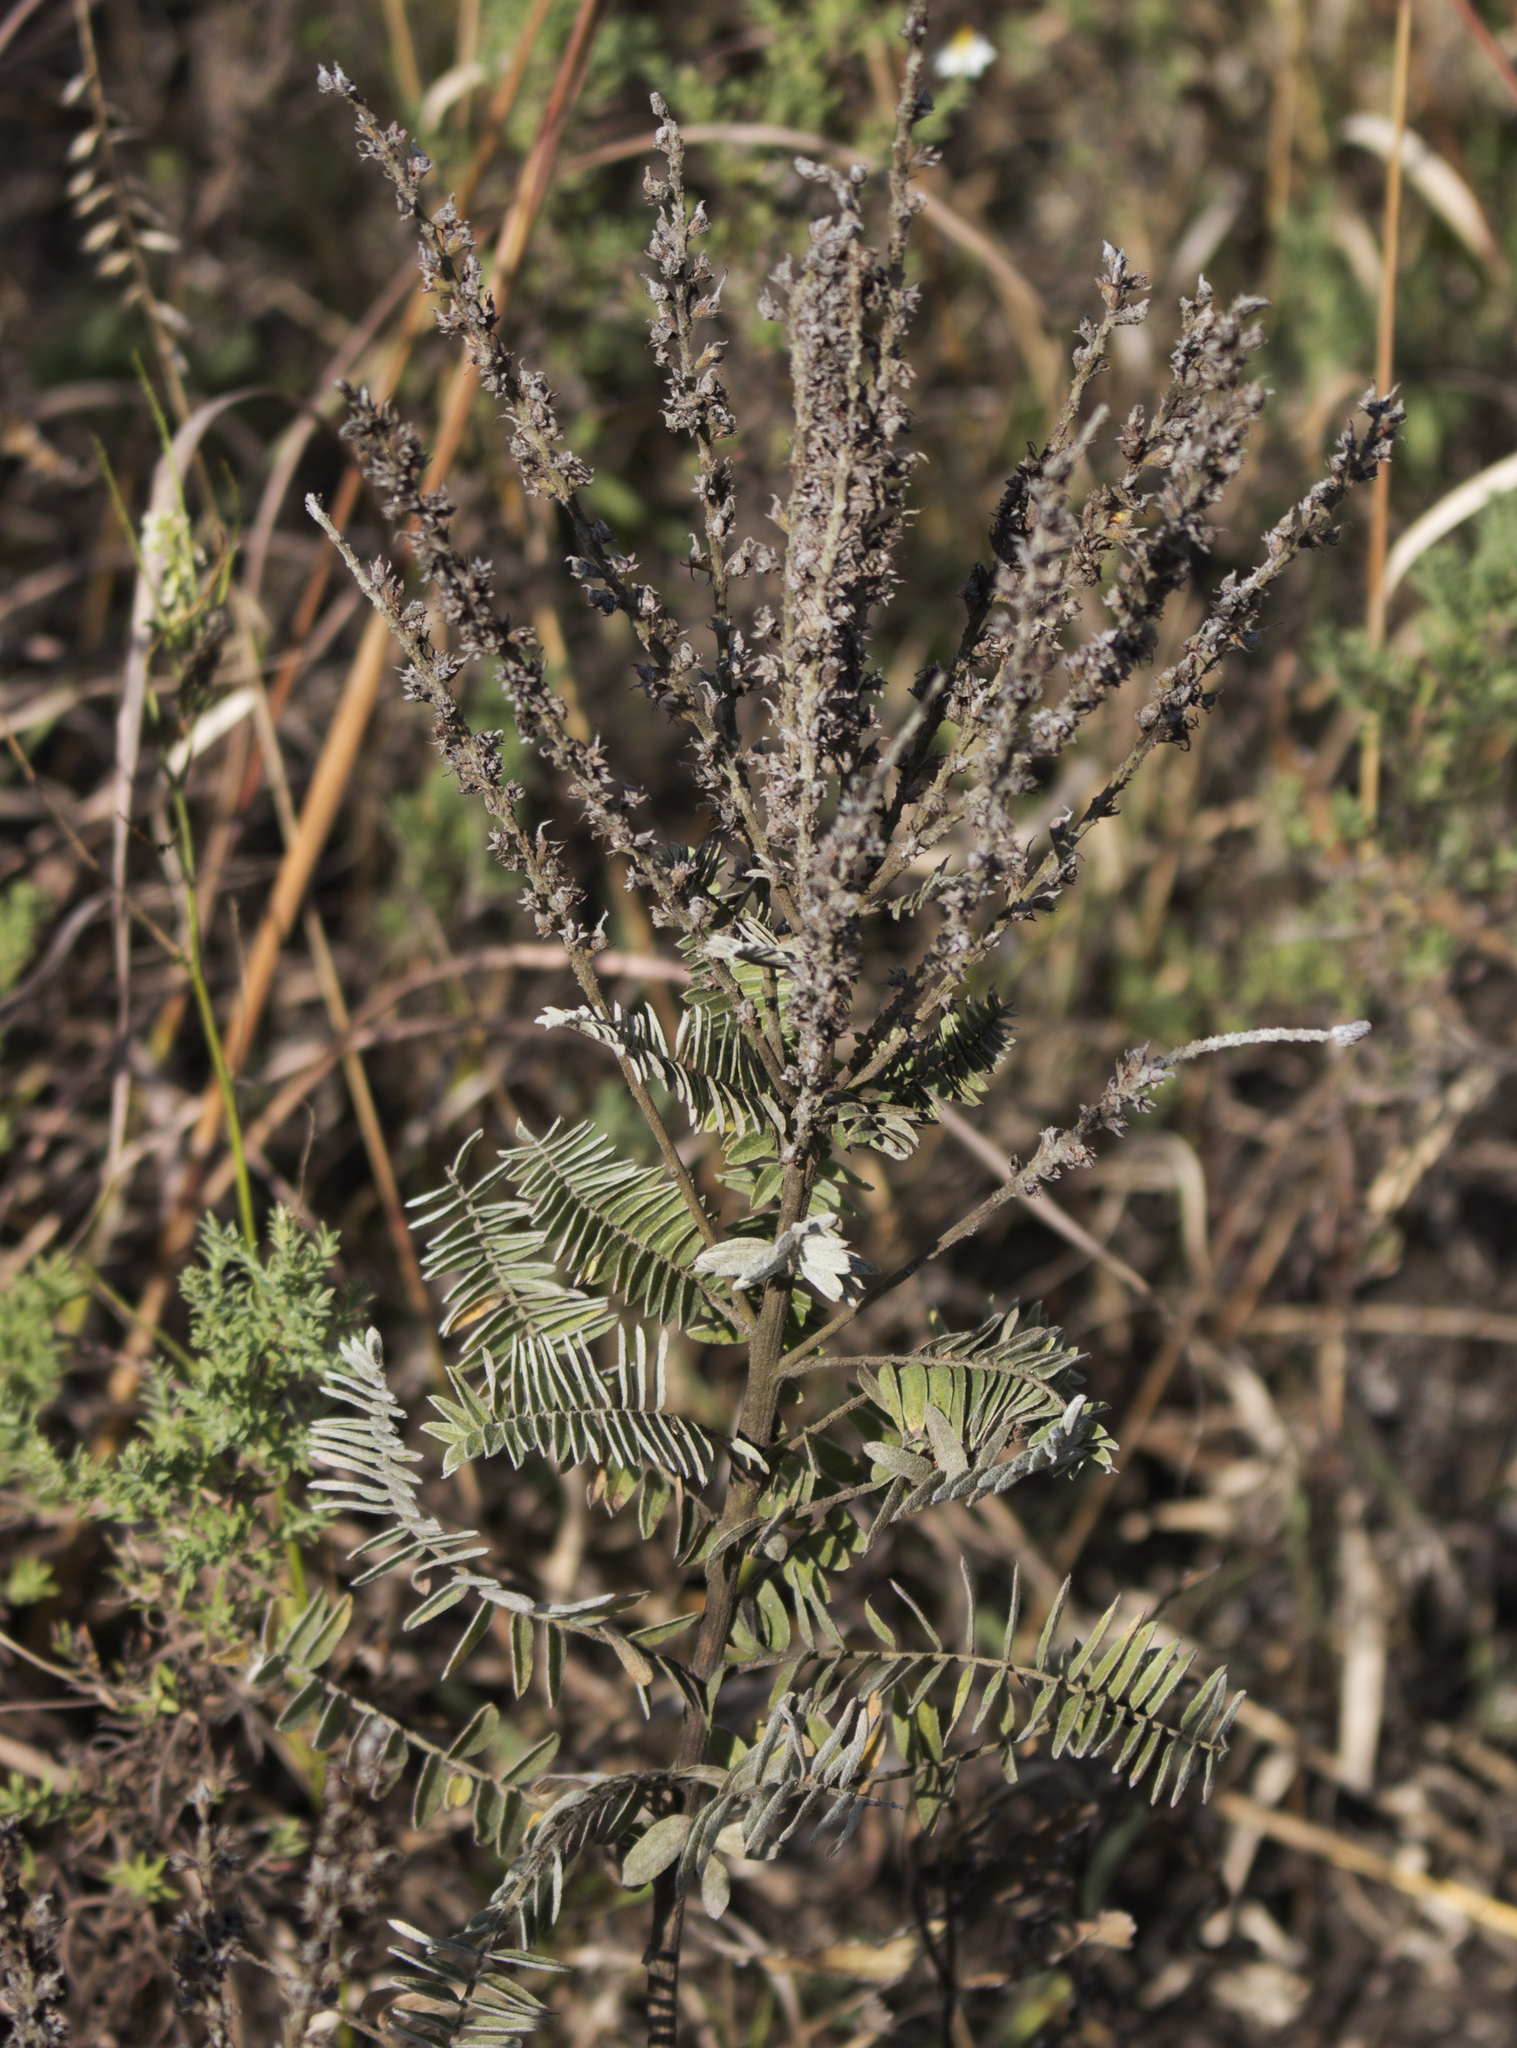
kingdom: Plantae
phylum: Tracheophyta
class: Magnoliopsida
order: Fabales
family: Fabaceae
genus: Amorpha
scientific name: Amorpha canescens
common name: Leadplant
